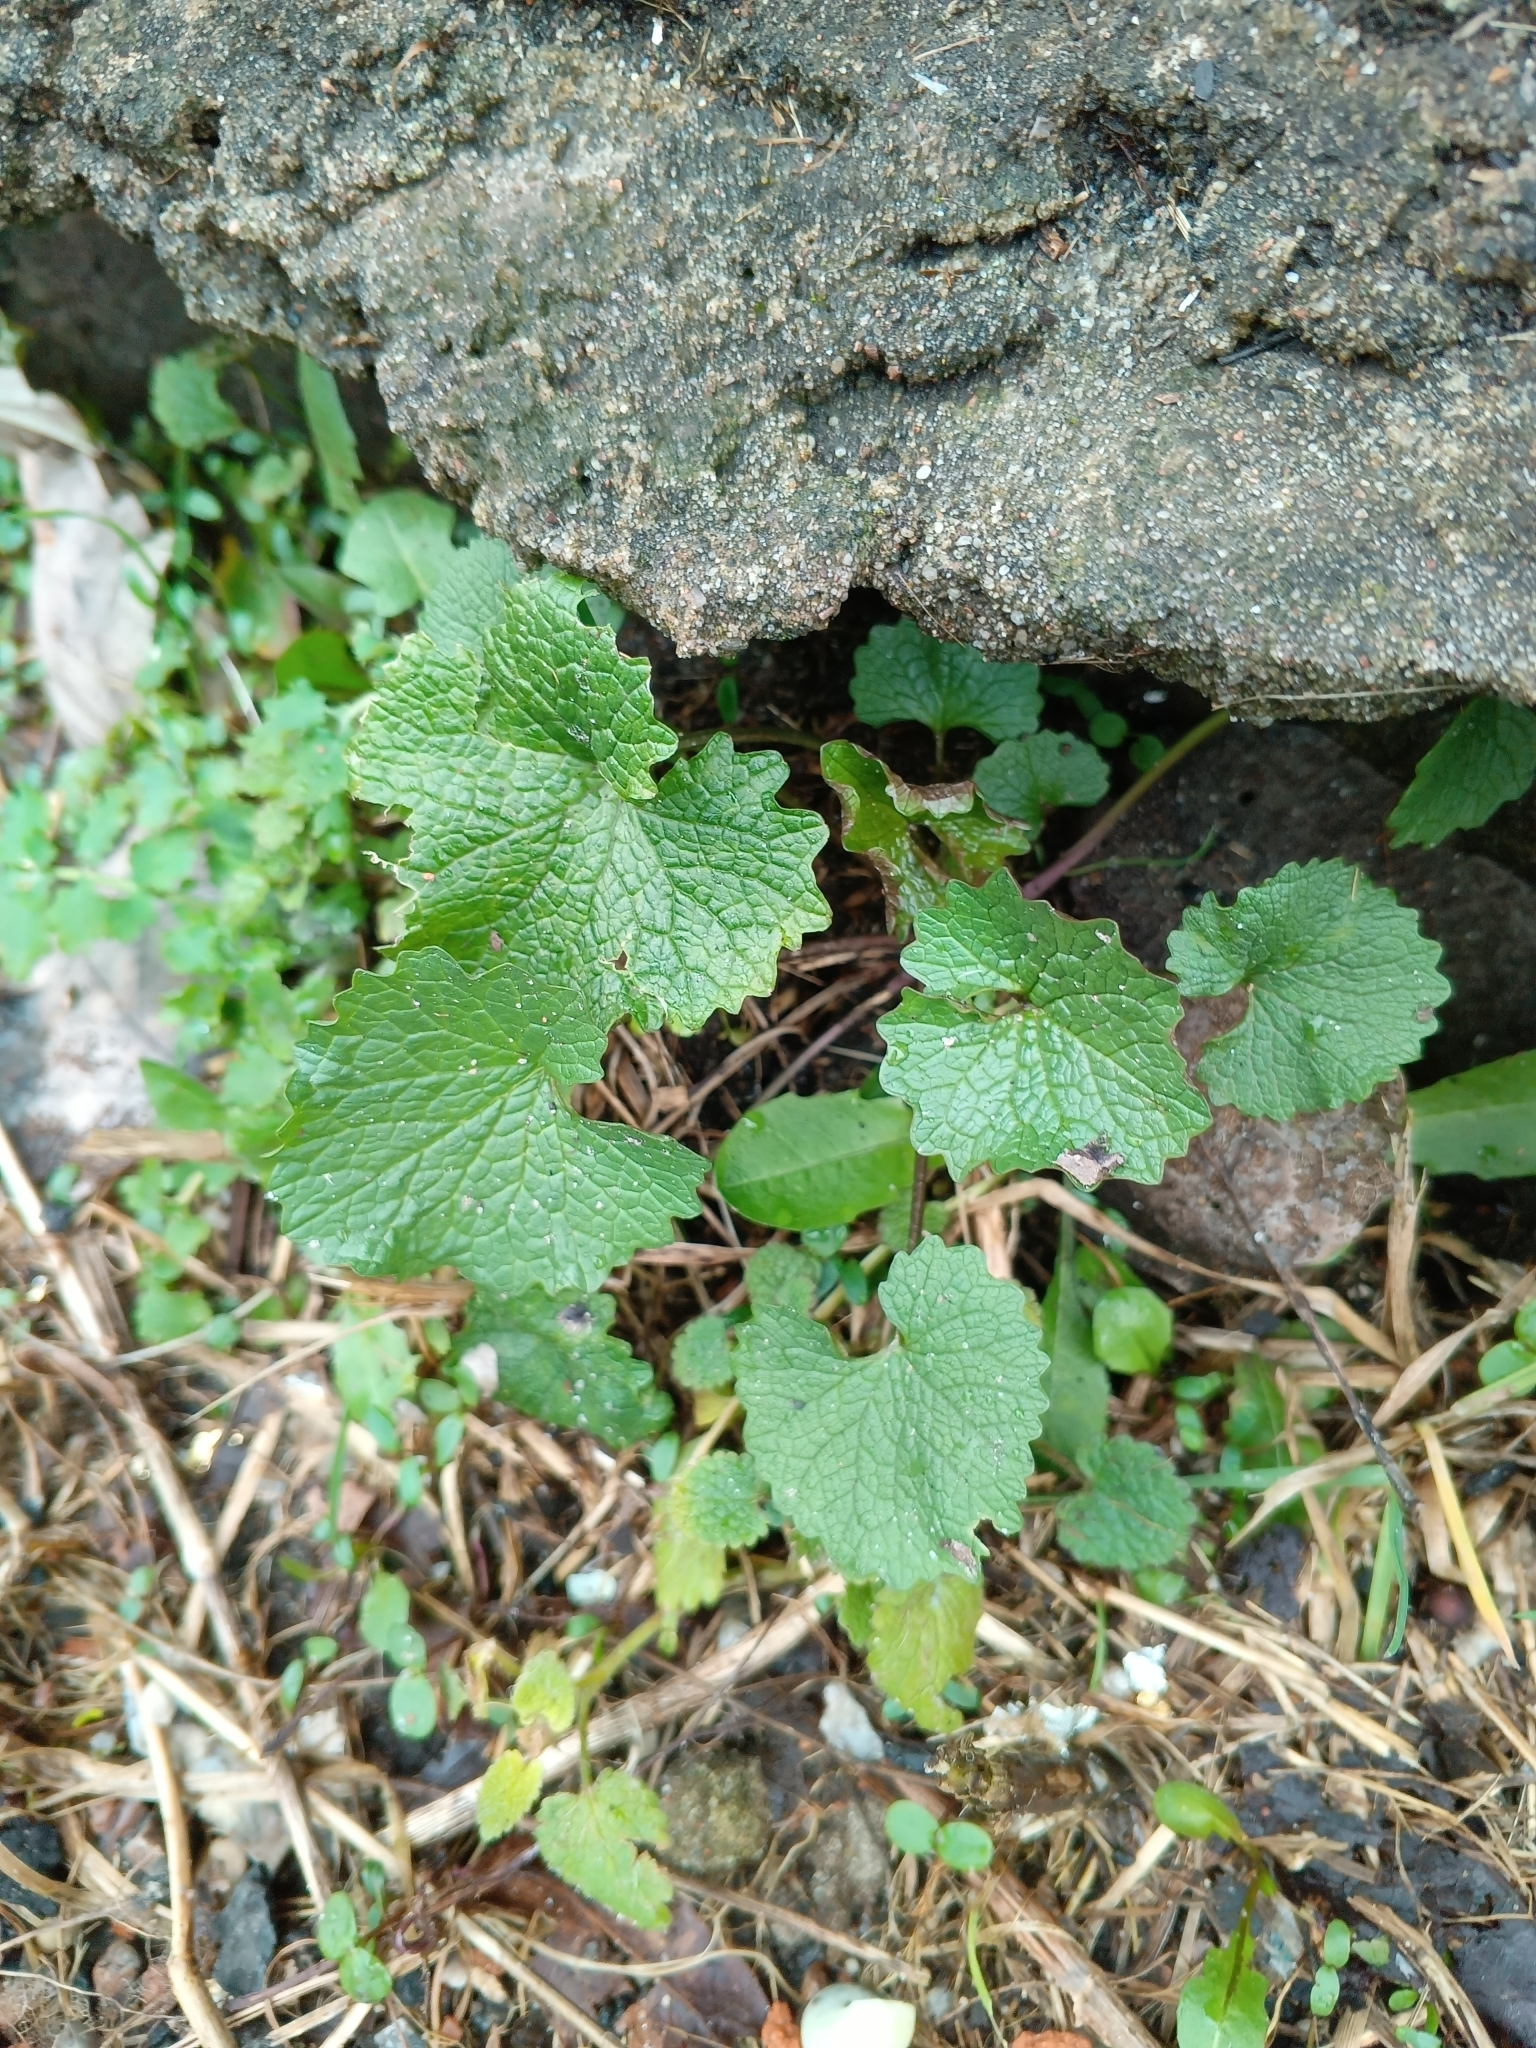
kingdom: Plantae
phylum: Tracheophyta
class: Magnoliopsida
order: Brassicales
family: Brassicaceae
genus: Alliaria
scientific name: Alliaria petiolata
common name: Garlic mustard
